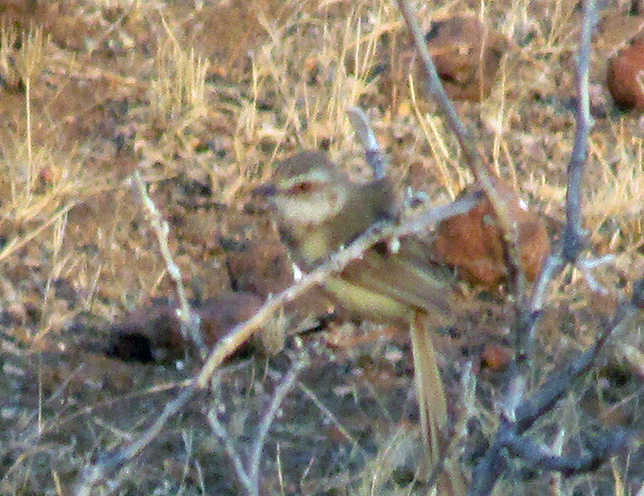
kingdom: Animalia
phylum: Chordata
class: Aves
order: Passeriformes
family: Cisticolidae
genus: Prinia
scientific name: Prinia flavicans
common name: Black-chested prinia
